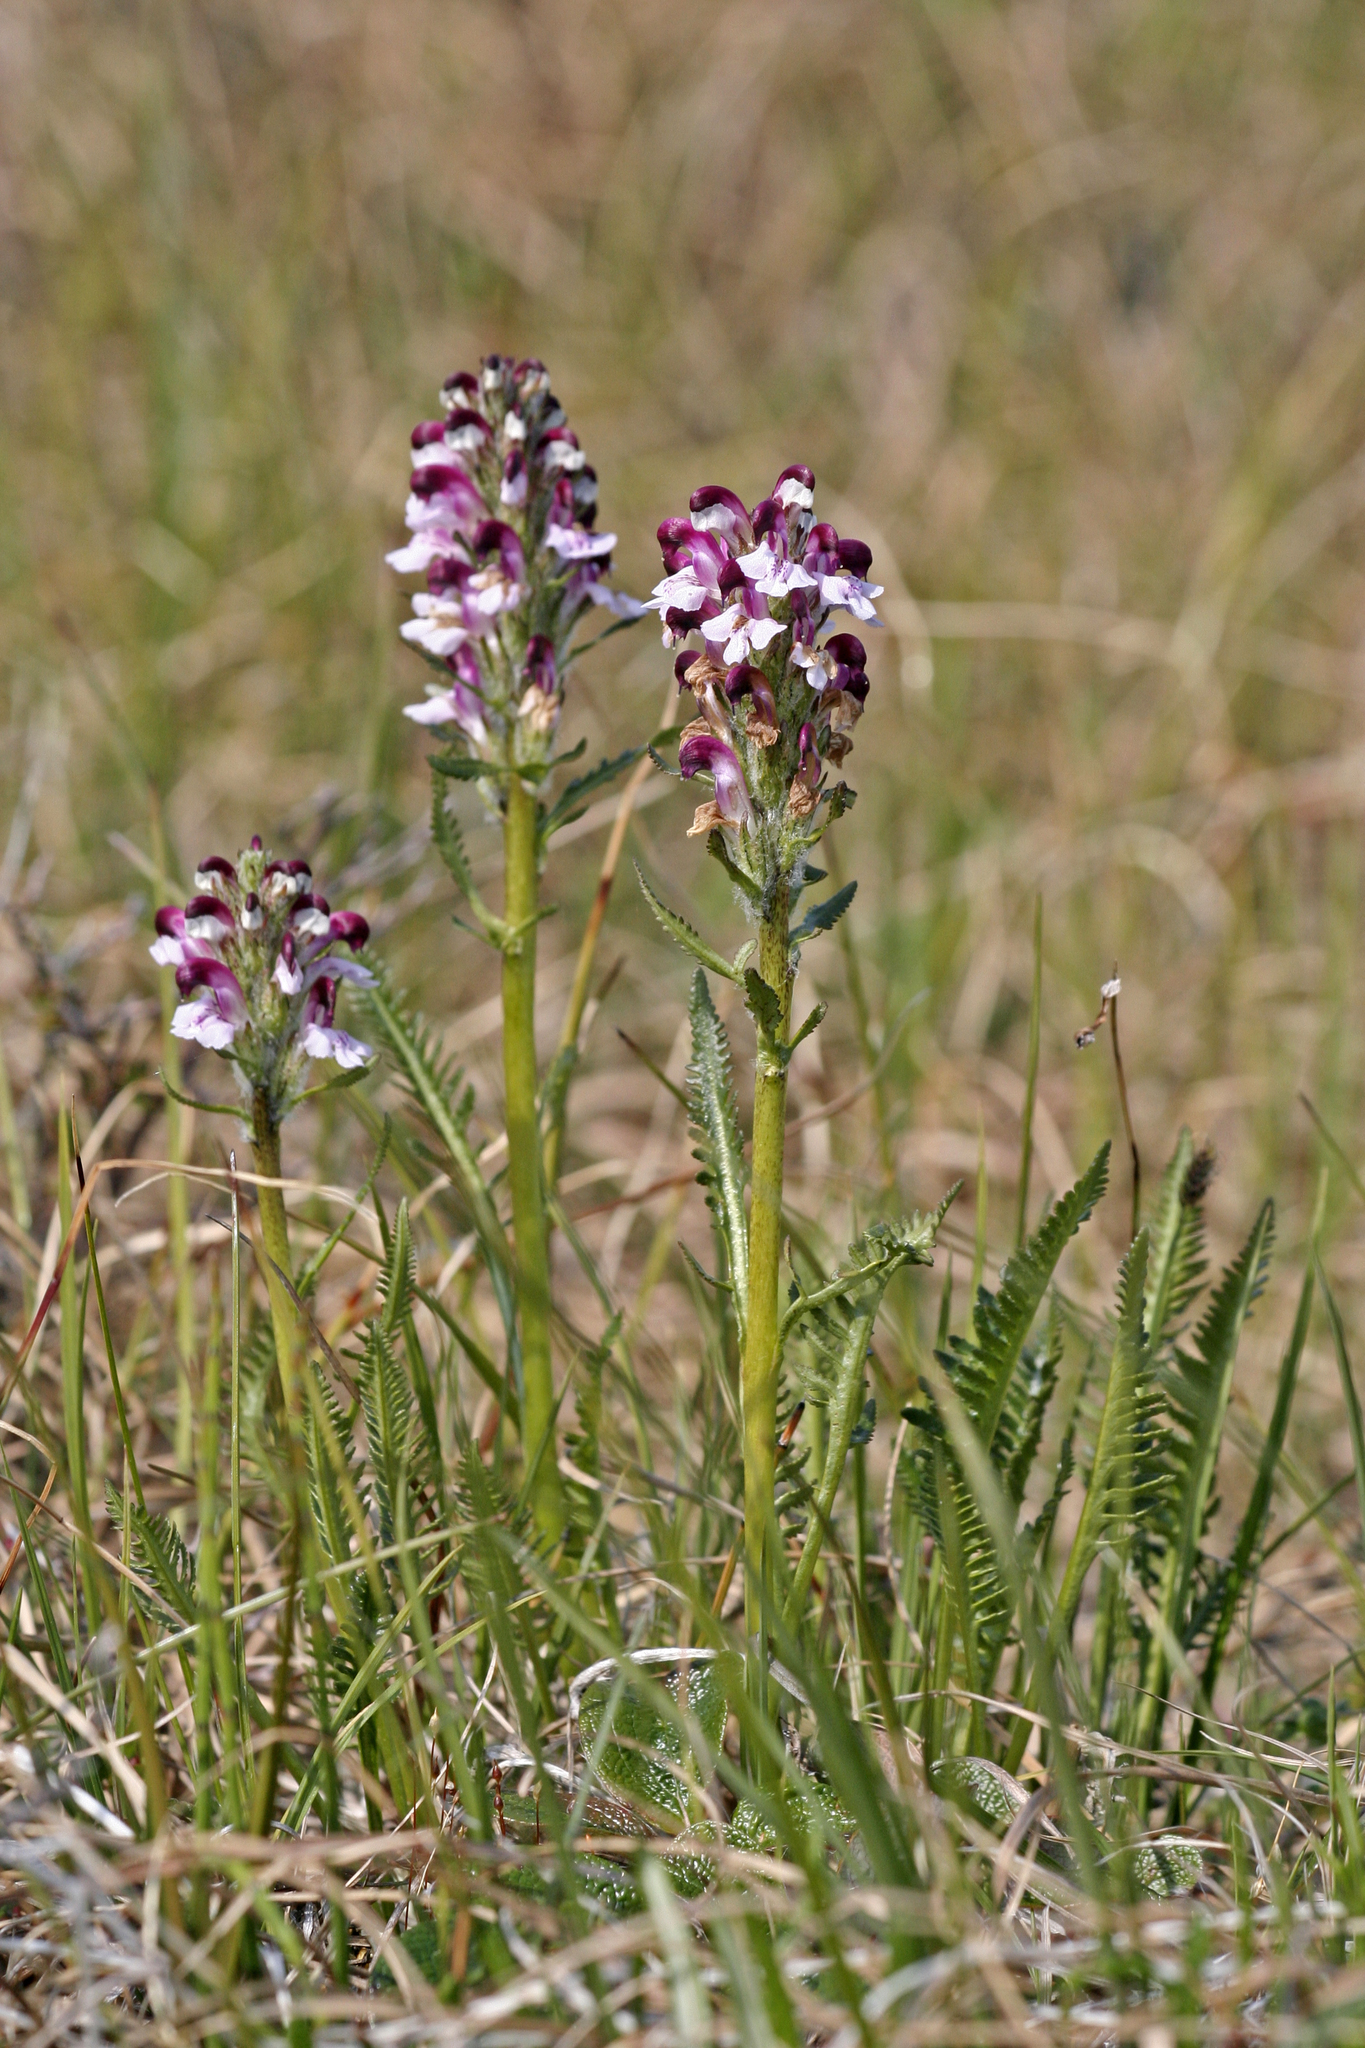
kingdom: Plantae
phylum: Tracheophyta
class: Magnoliopsida
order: Lamiales
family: Orobanchaceae
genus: Pedicularis
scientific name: Pedicularis novaiae-zemliae
